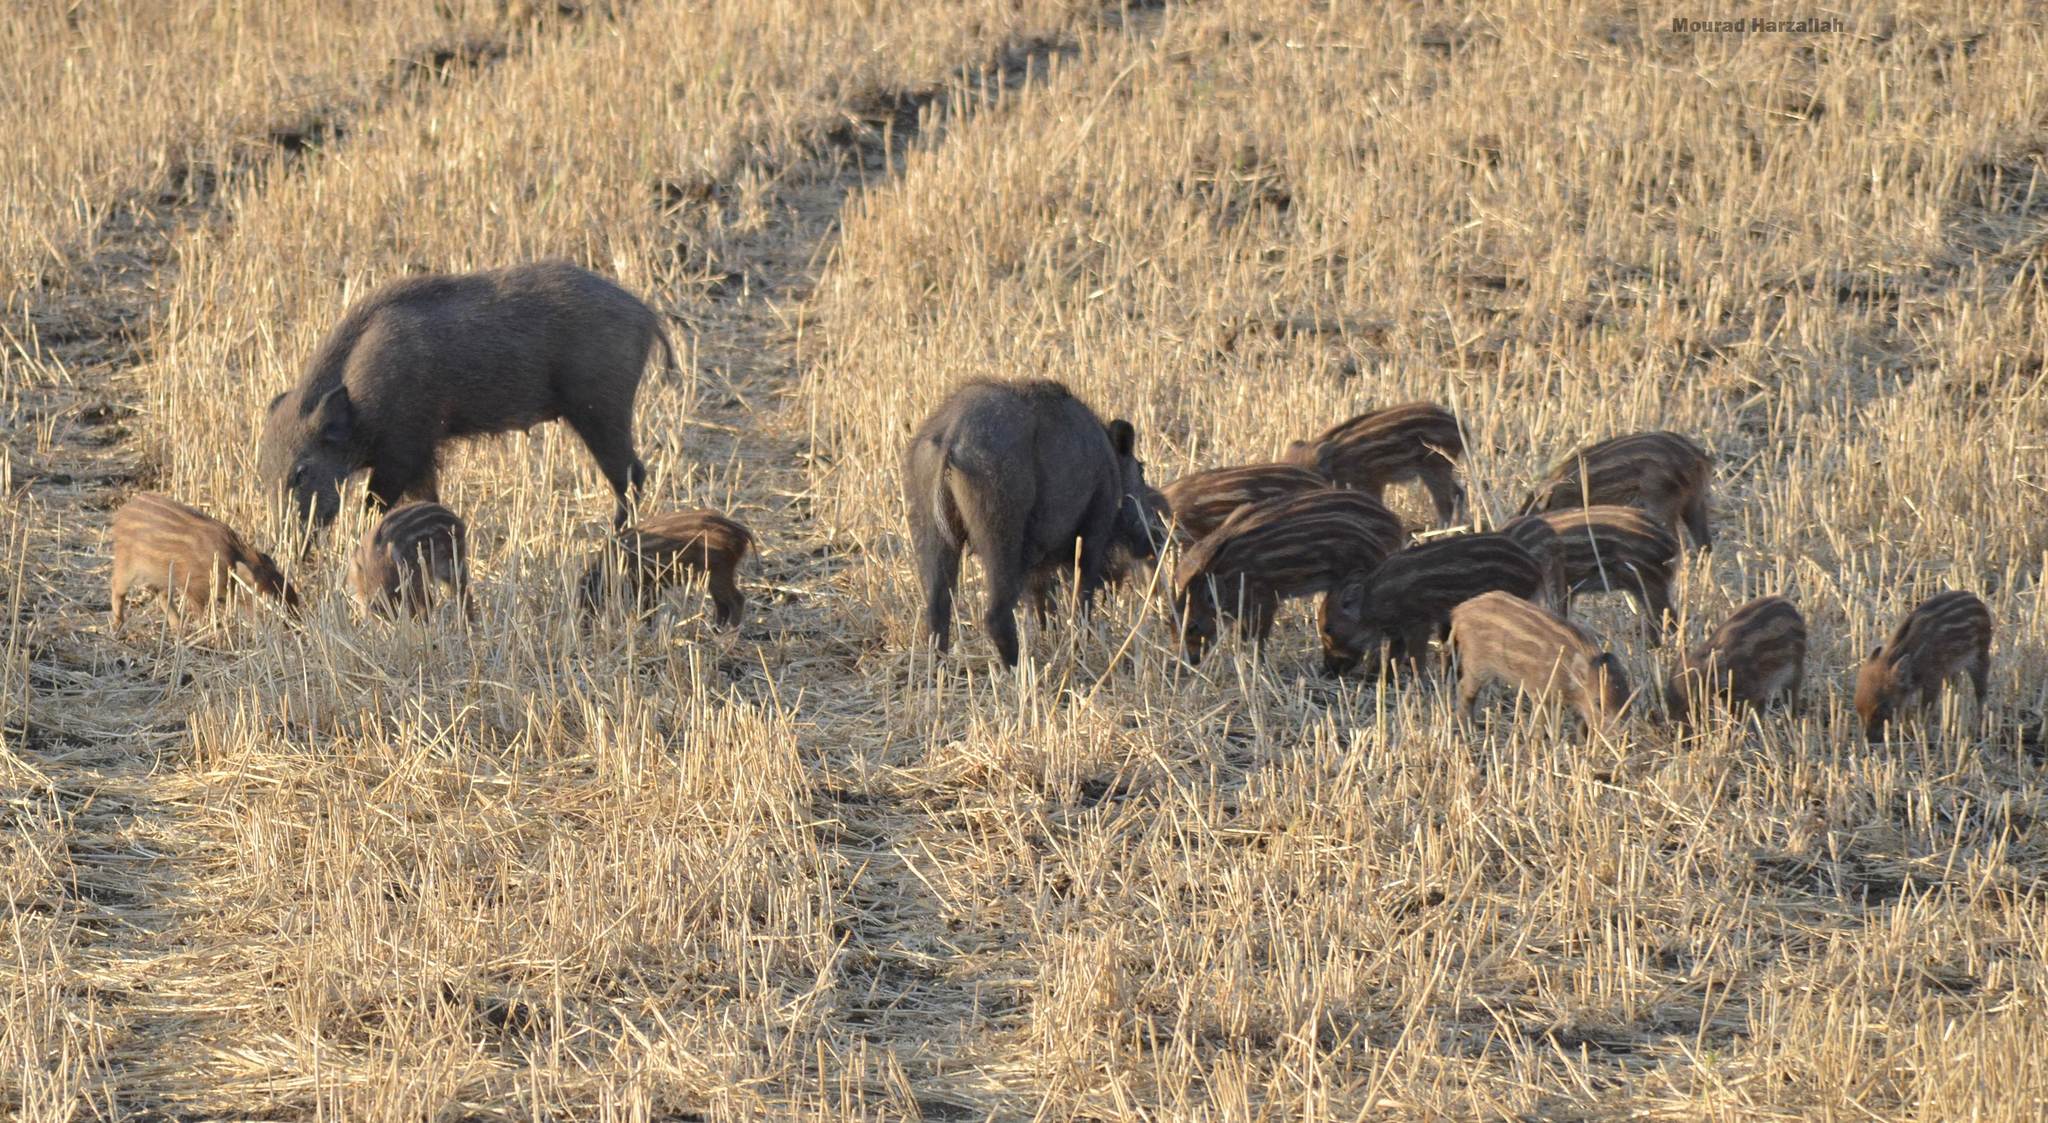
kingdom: Animalia
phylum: Chordata
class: Mammalia
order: Artiodactyla
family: Suidae
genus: Sus
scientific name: Sus scrofa
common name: Wild boar
